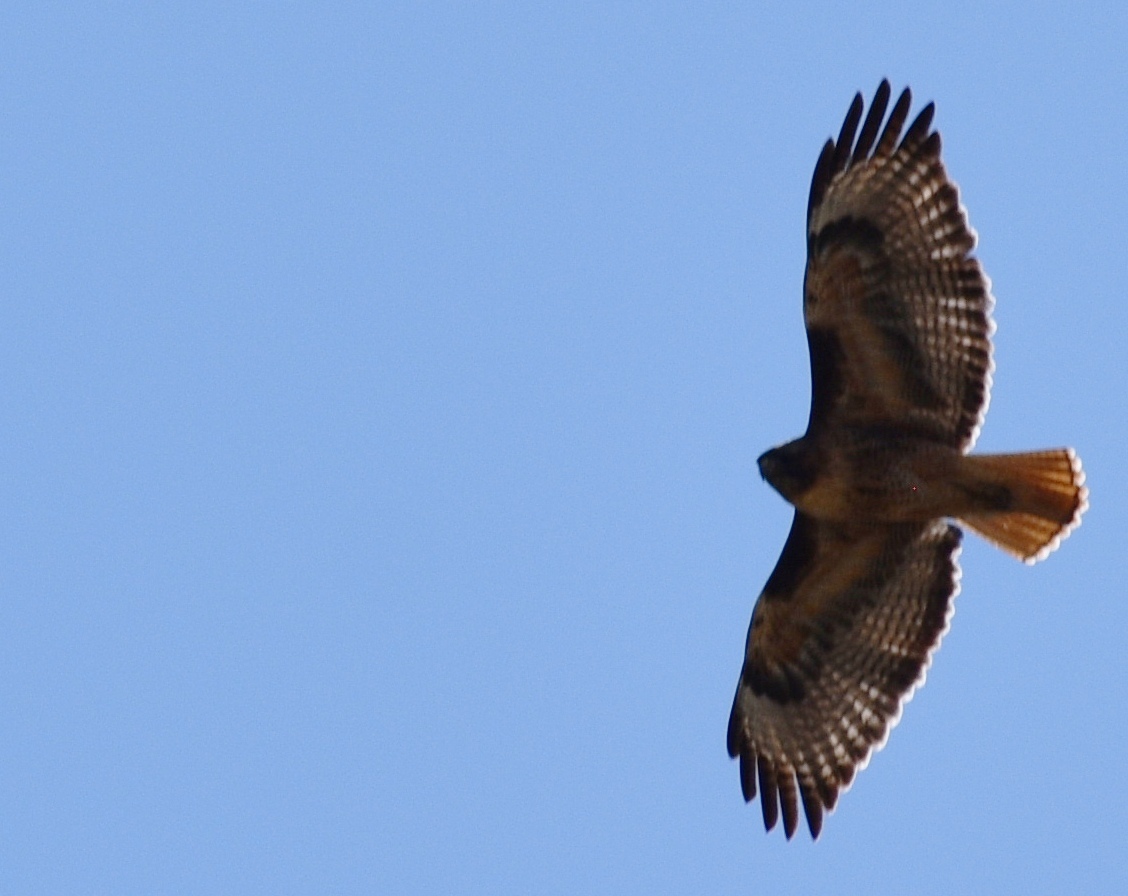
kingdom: Animalia
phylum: Chordata
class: Aves
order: Accipitriformes
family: Accipitridae
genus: Buteo
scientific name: Buteo jamaicensis
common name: Red-tailed hawk
